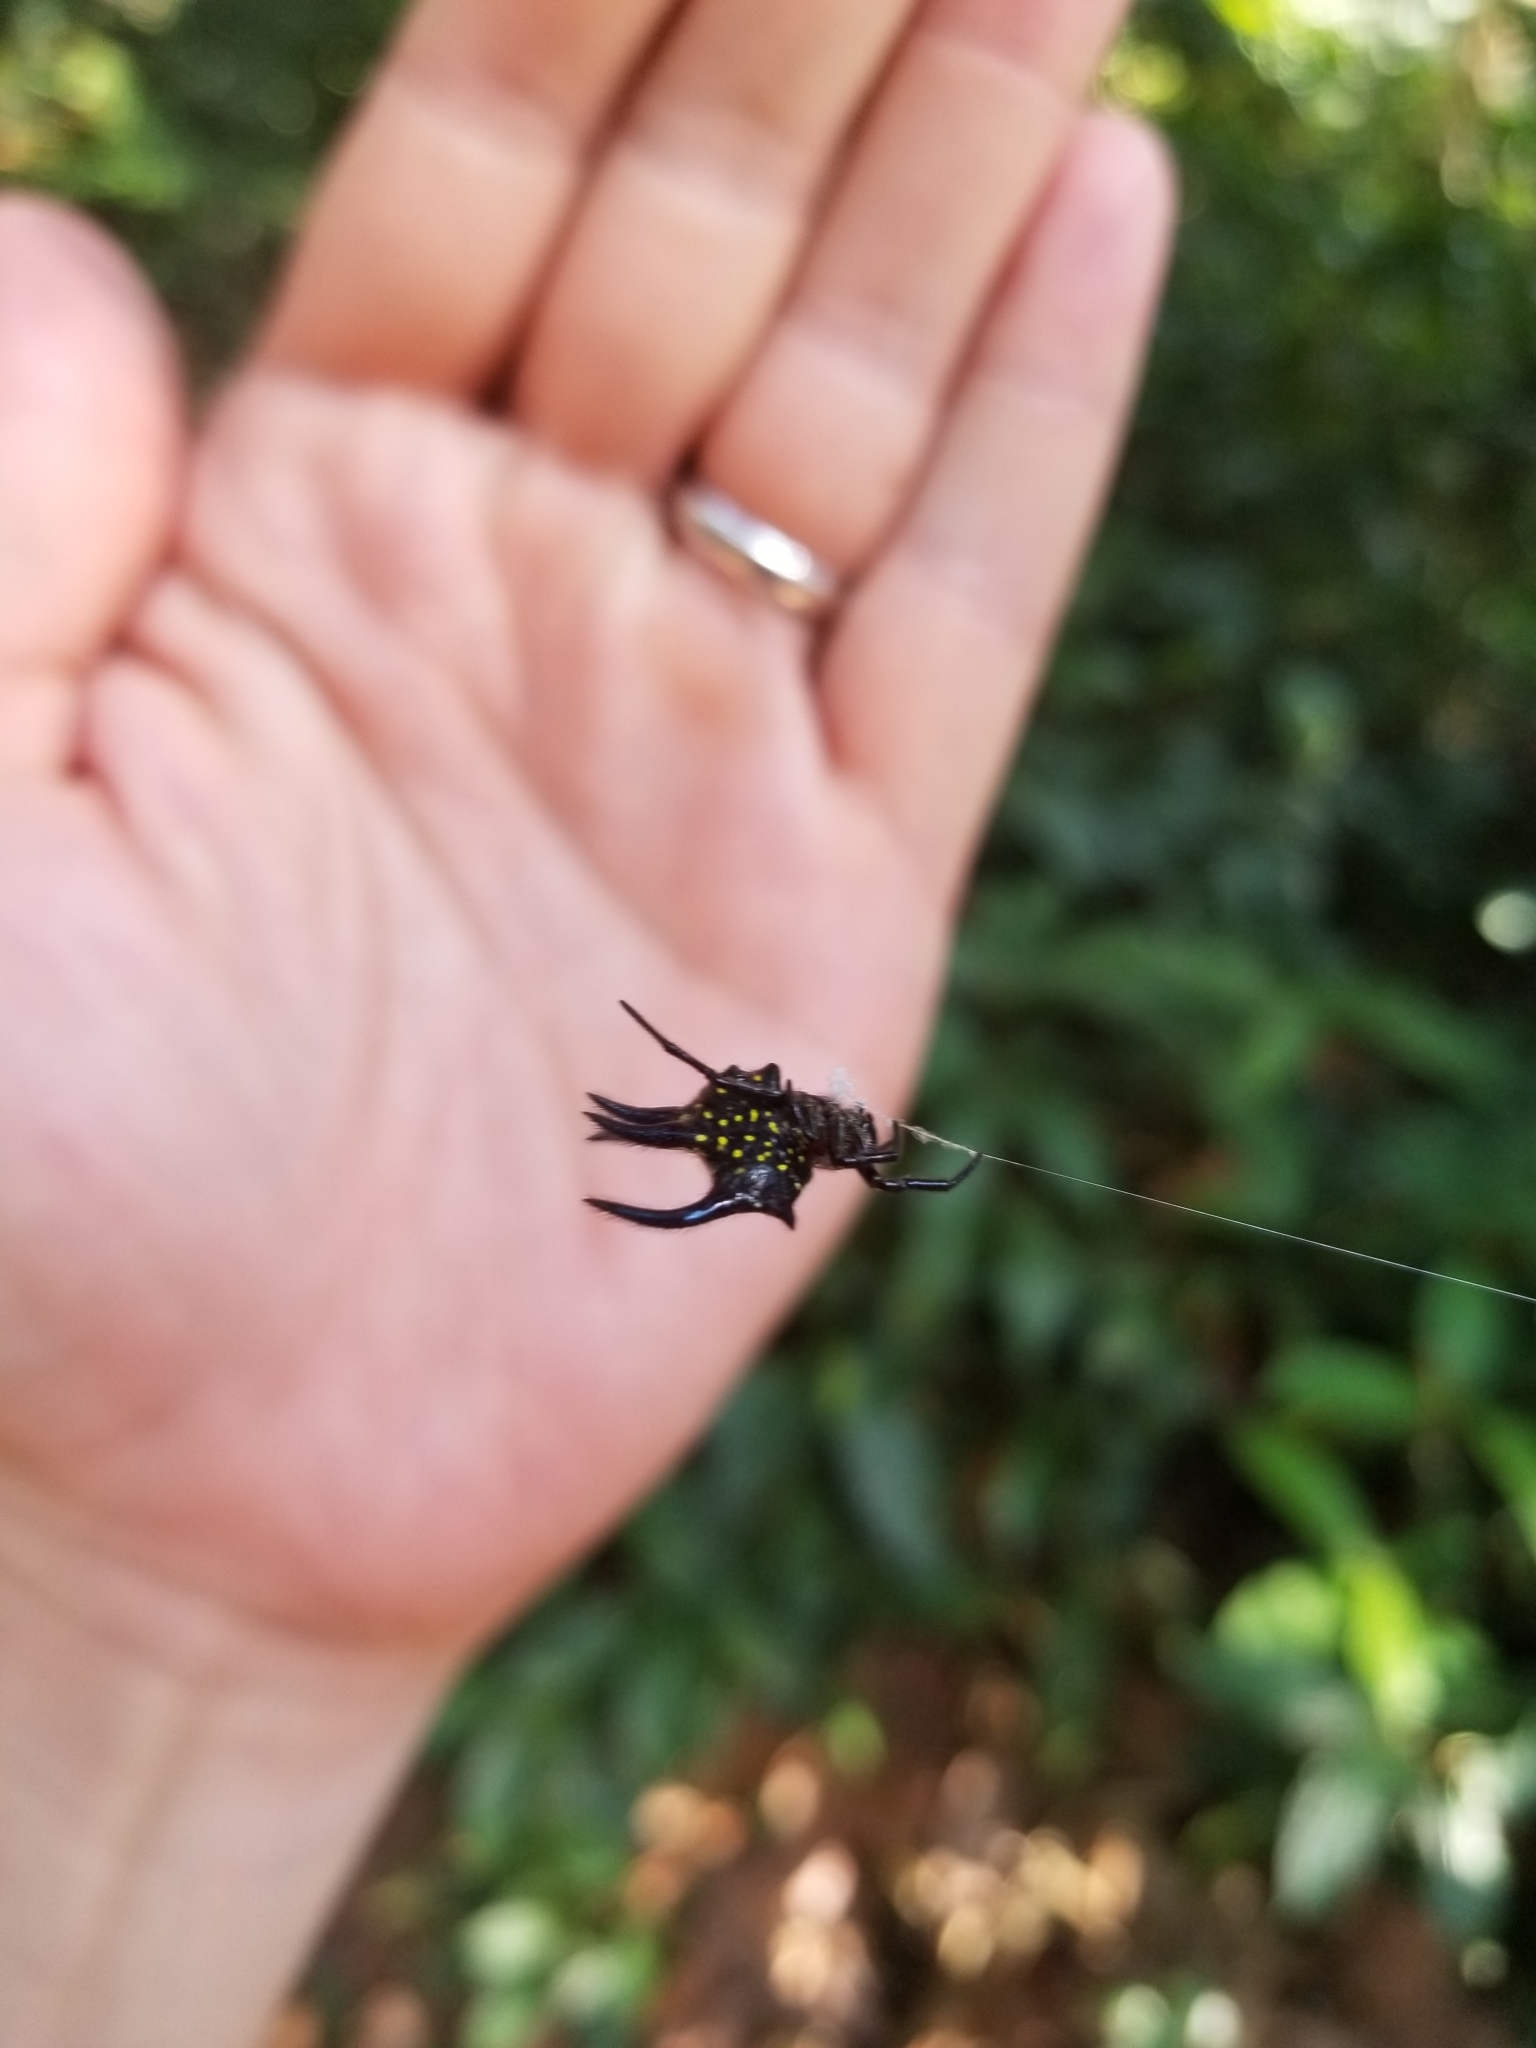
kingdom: Animalia
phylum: Arthropoda
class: Arachnida
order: Araneae
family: Araneidae
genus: Gasteracantha
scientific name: Gasteracantha curvispina
